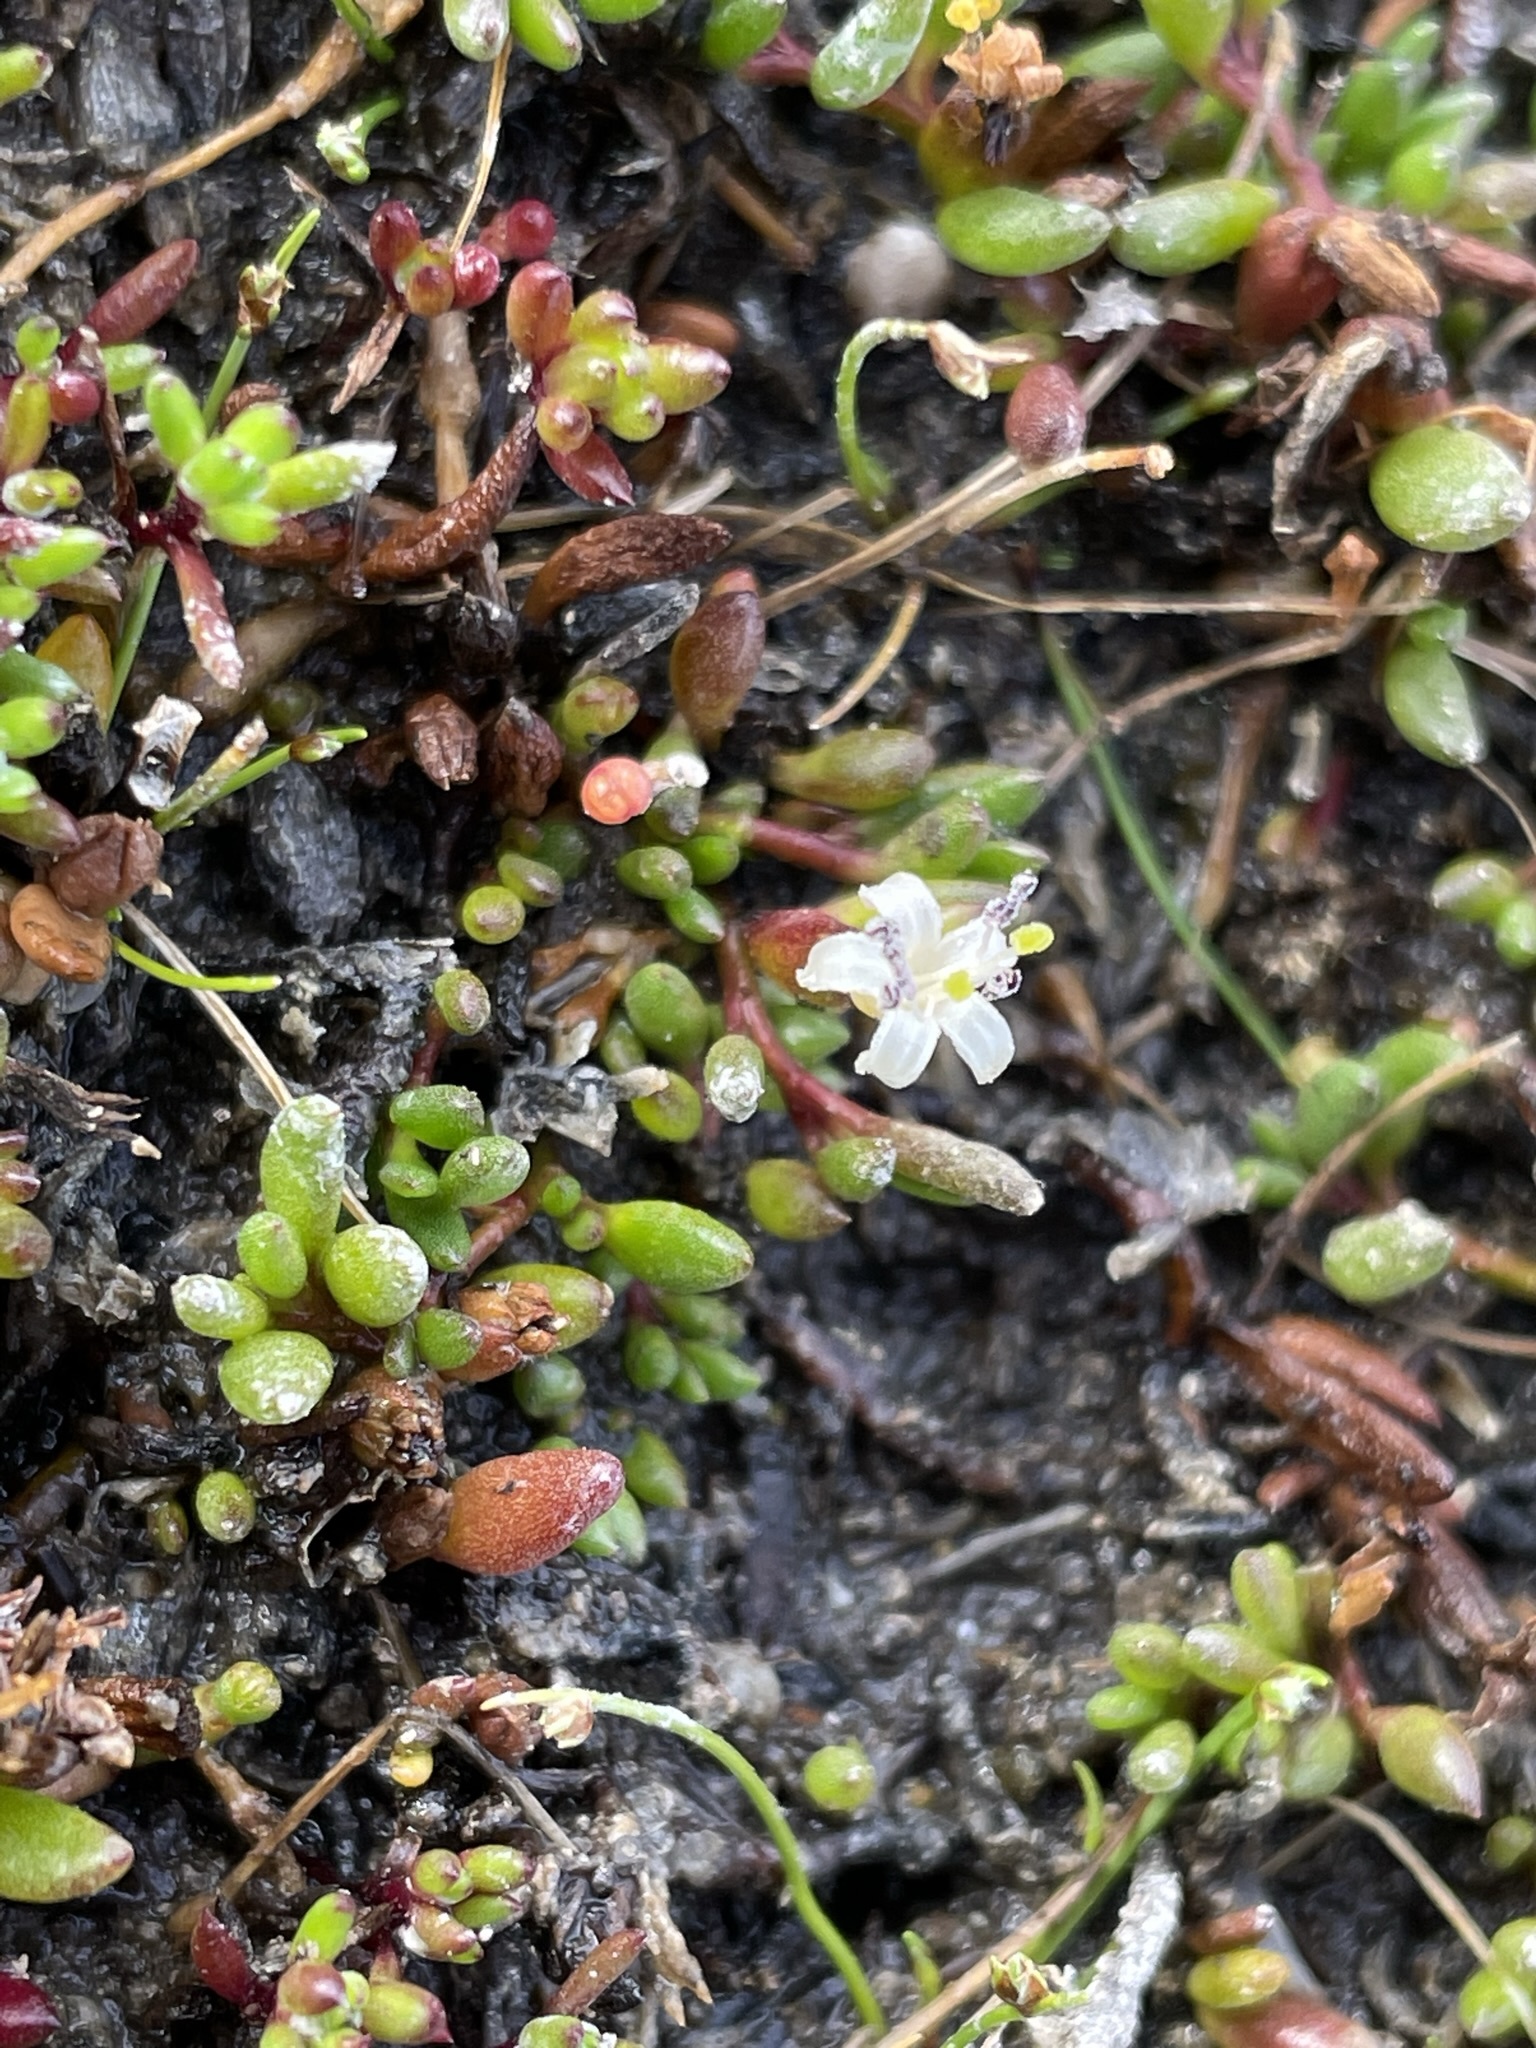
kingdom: Plantae
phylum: Tracheophyta
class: Magnoliopsida
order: Solanales
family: Convolvulaceae
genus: Wilsonia
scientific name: Wilsonia backhousei
